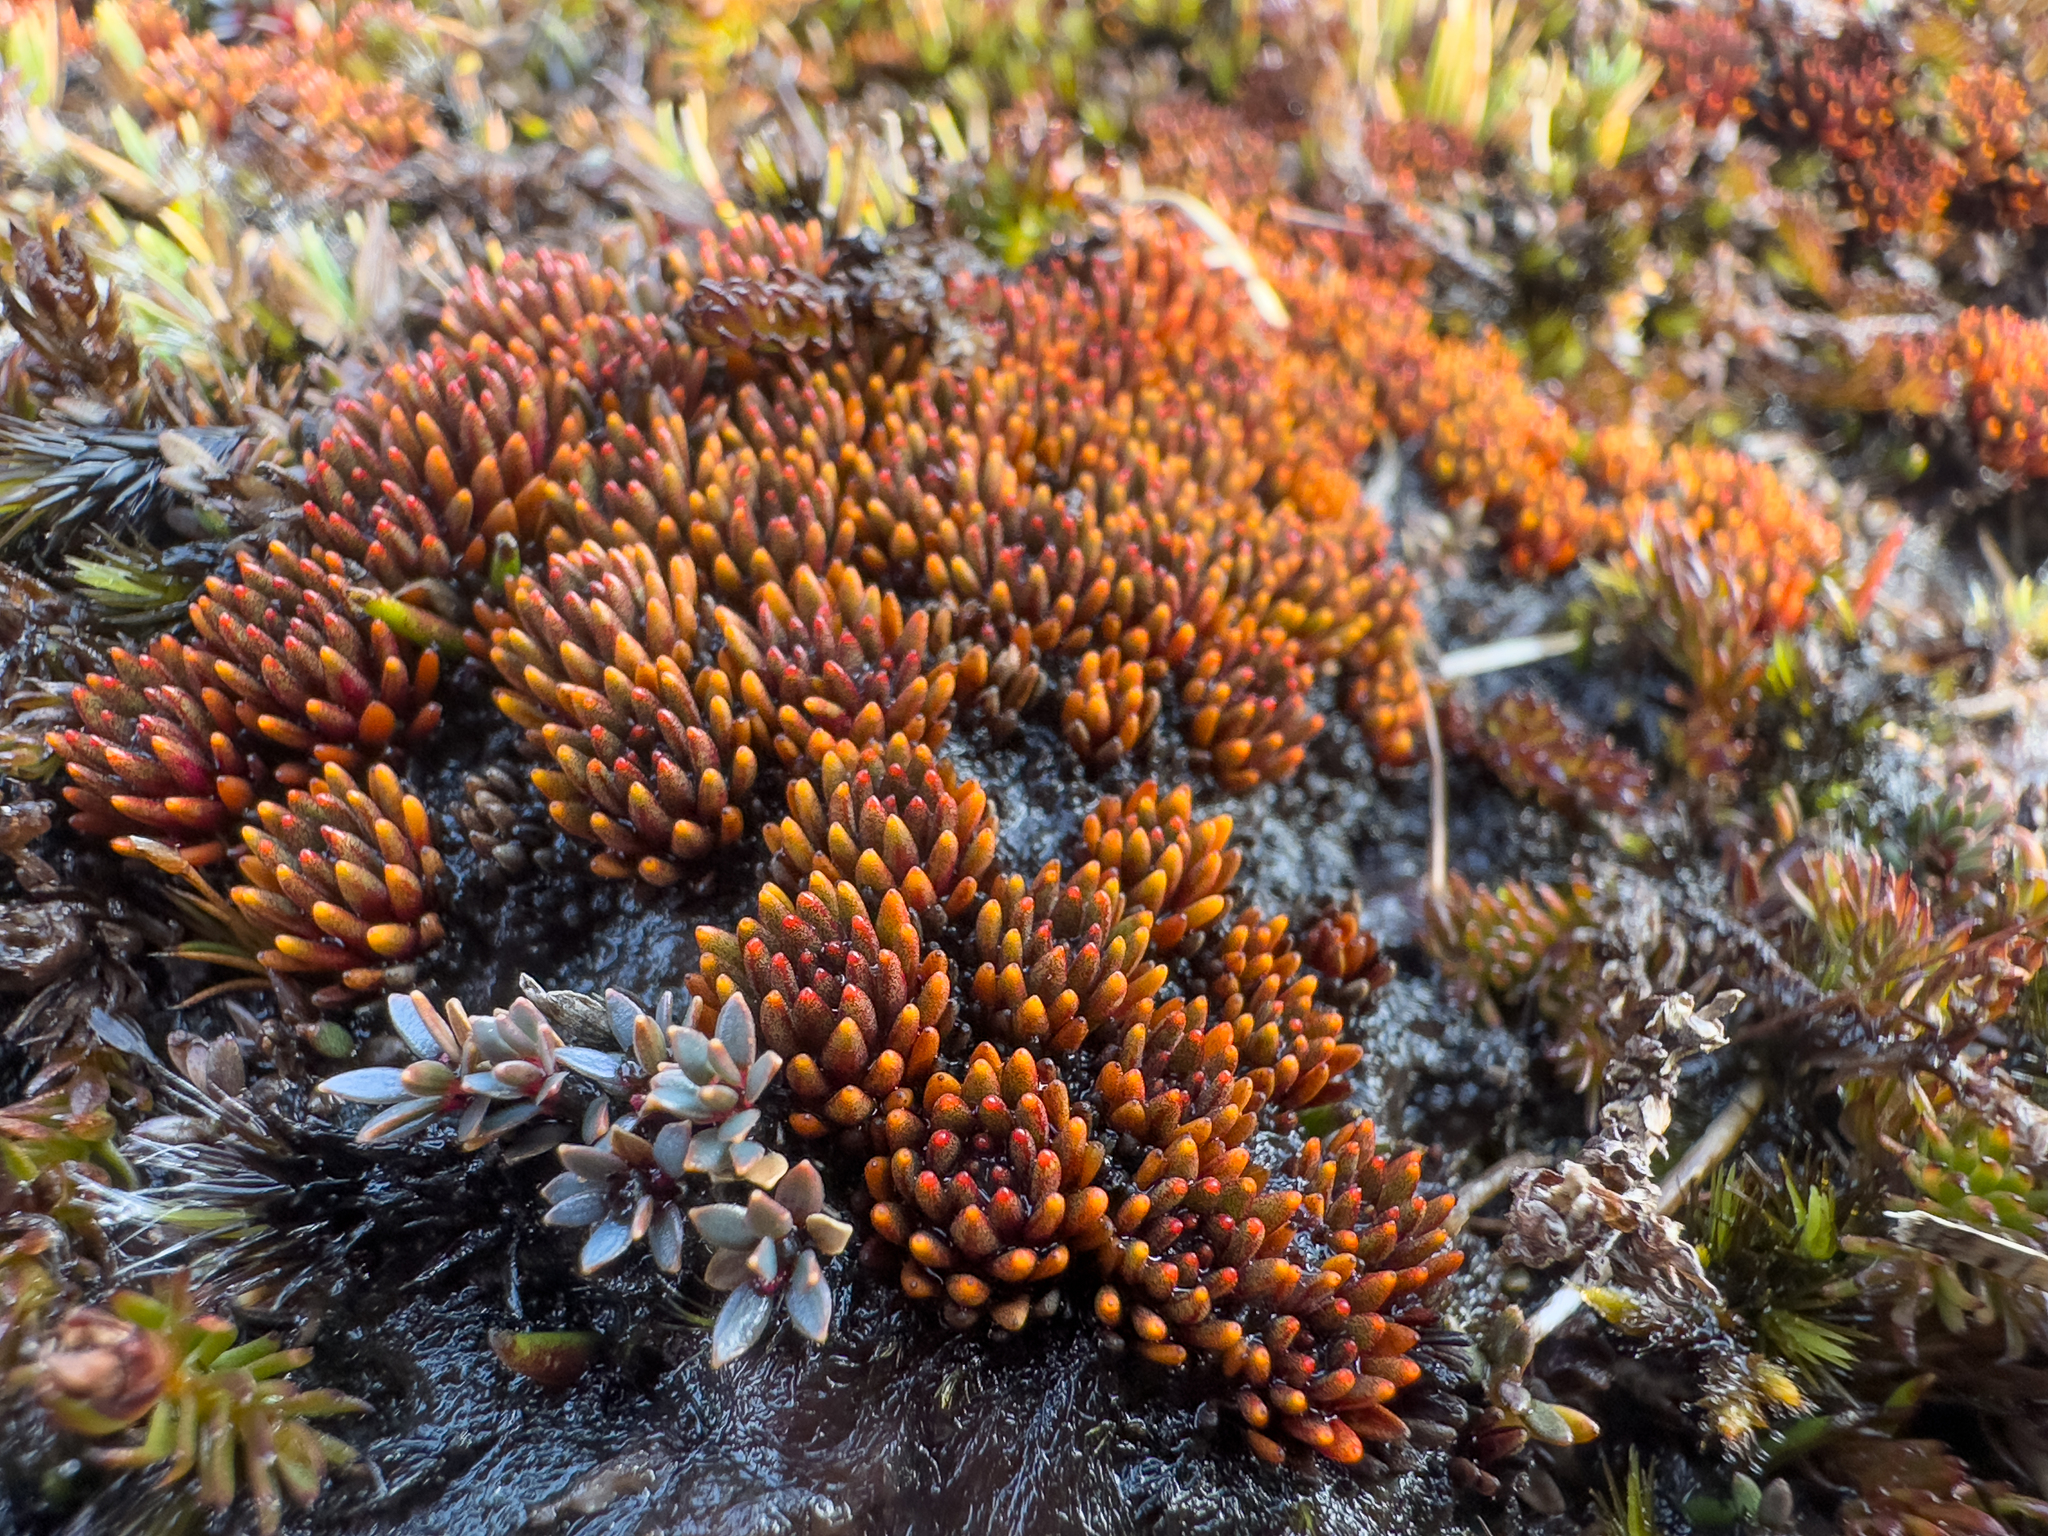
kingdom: Plantae
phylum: Tracheophyta
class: Magnoliopsida
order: Asterales
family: Stylidiaceae
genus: Donatia
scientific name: Donatia novae-zelandiae
